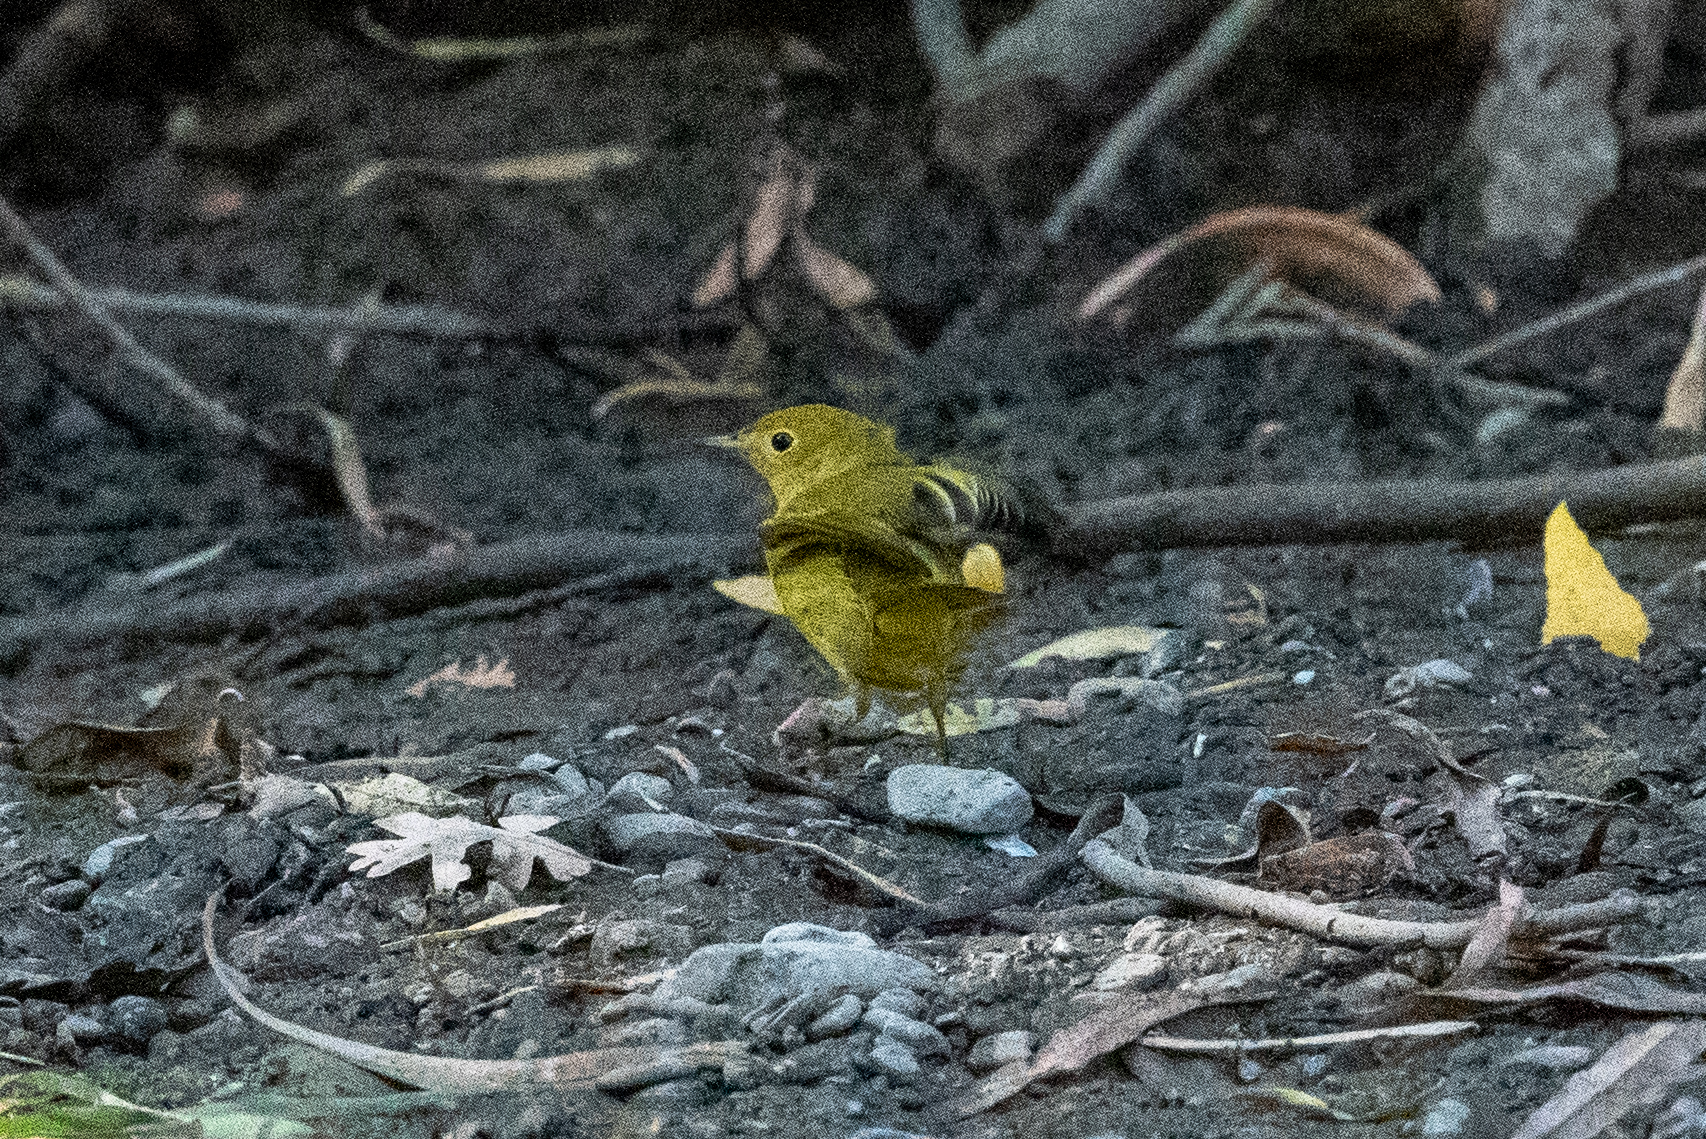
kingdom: Animalia
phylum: Chordata
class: Aves
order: Passeriformes
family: Parulidae
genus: Setophaga
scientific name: Setophaga petechia
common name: Yellow warbler
